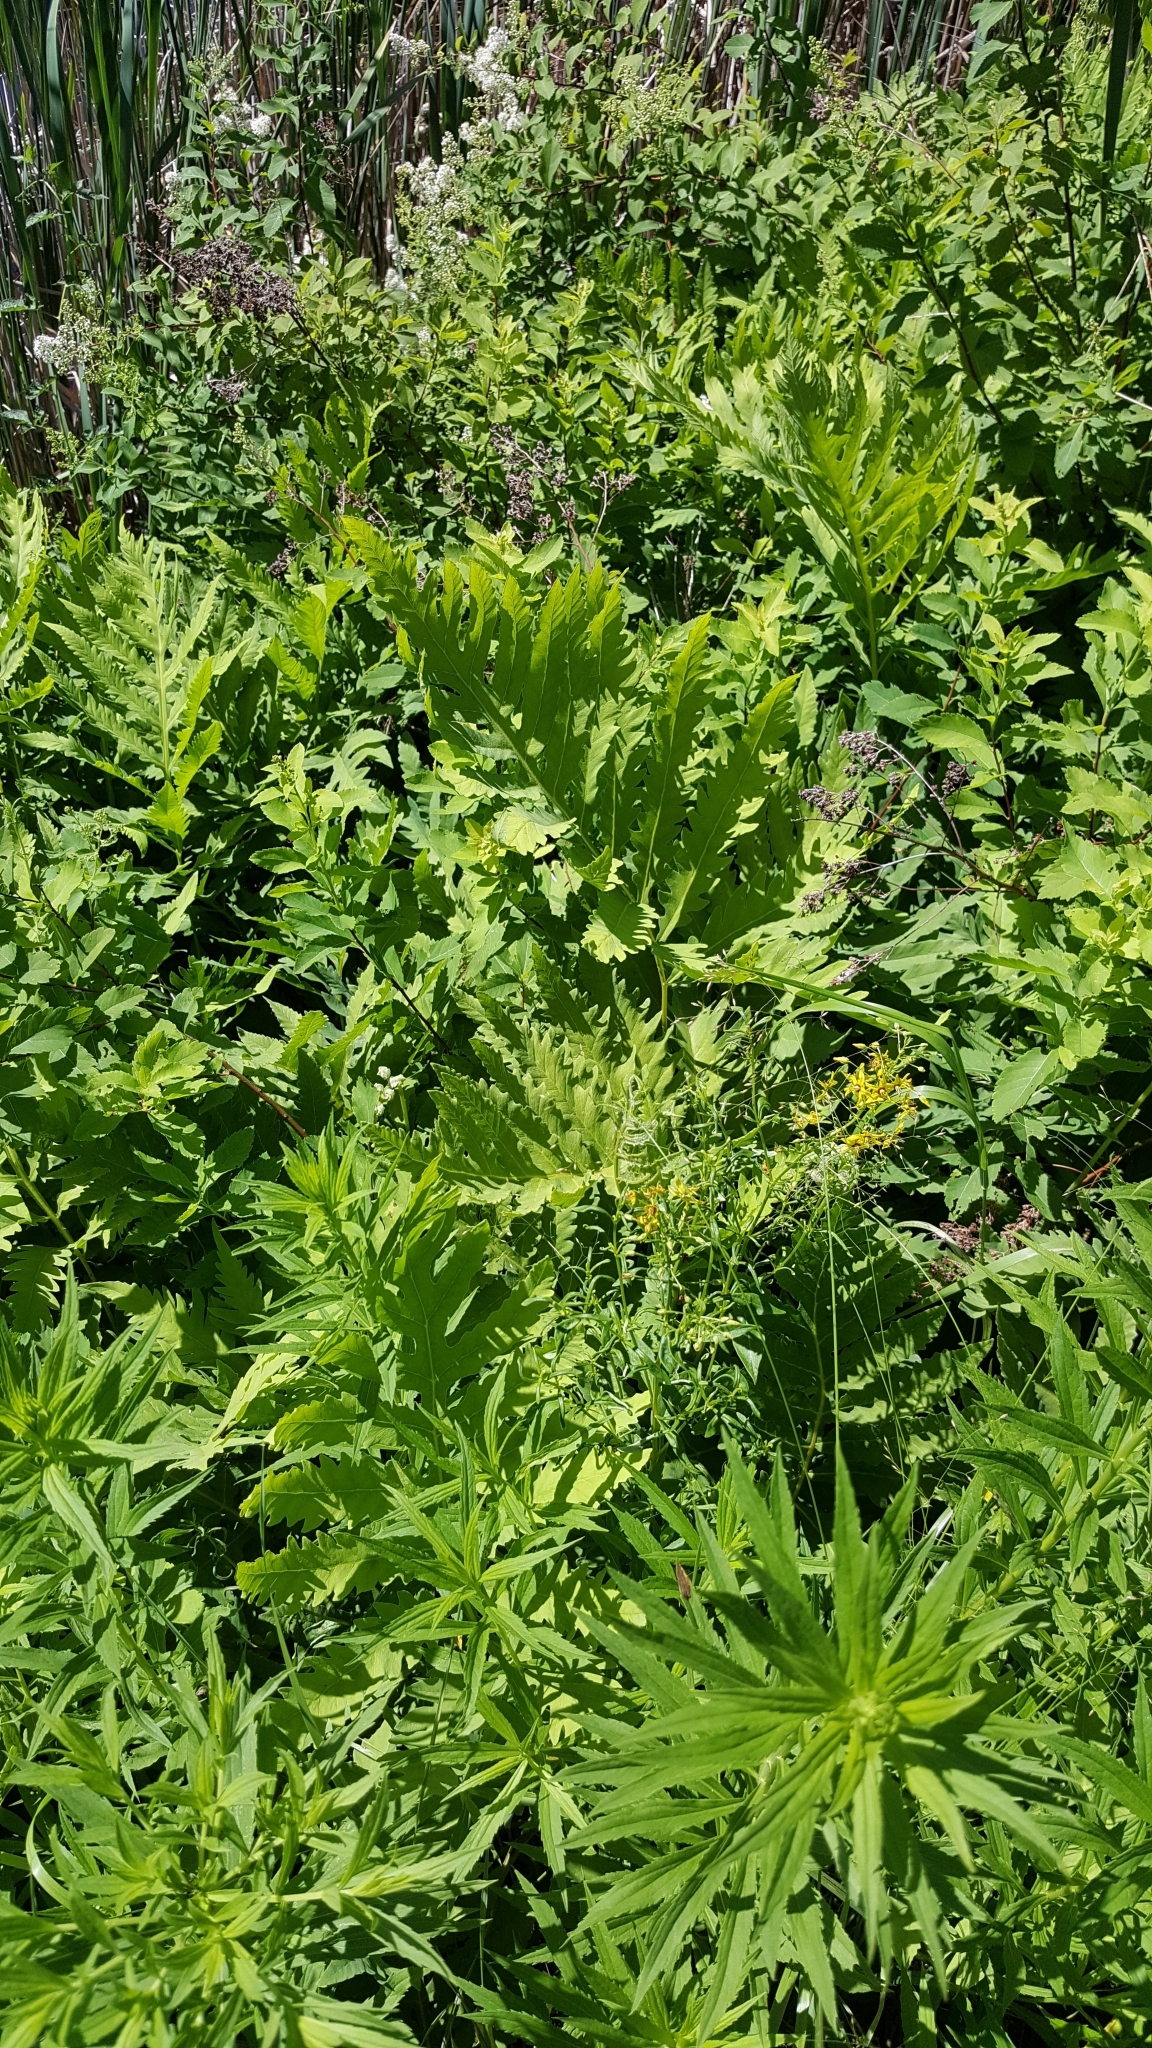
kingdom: Plantae
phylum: Tracheophyta
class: Polypodiopsida
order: Polypodiales
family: Onocleaceae
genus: Onoclea
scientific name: Onoclea sensibilis
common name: Sensitive fern
